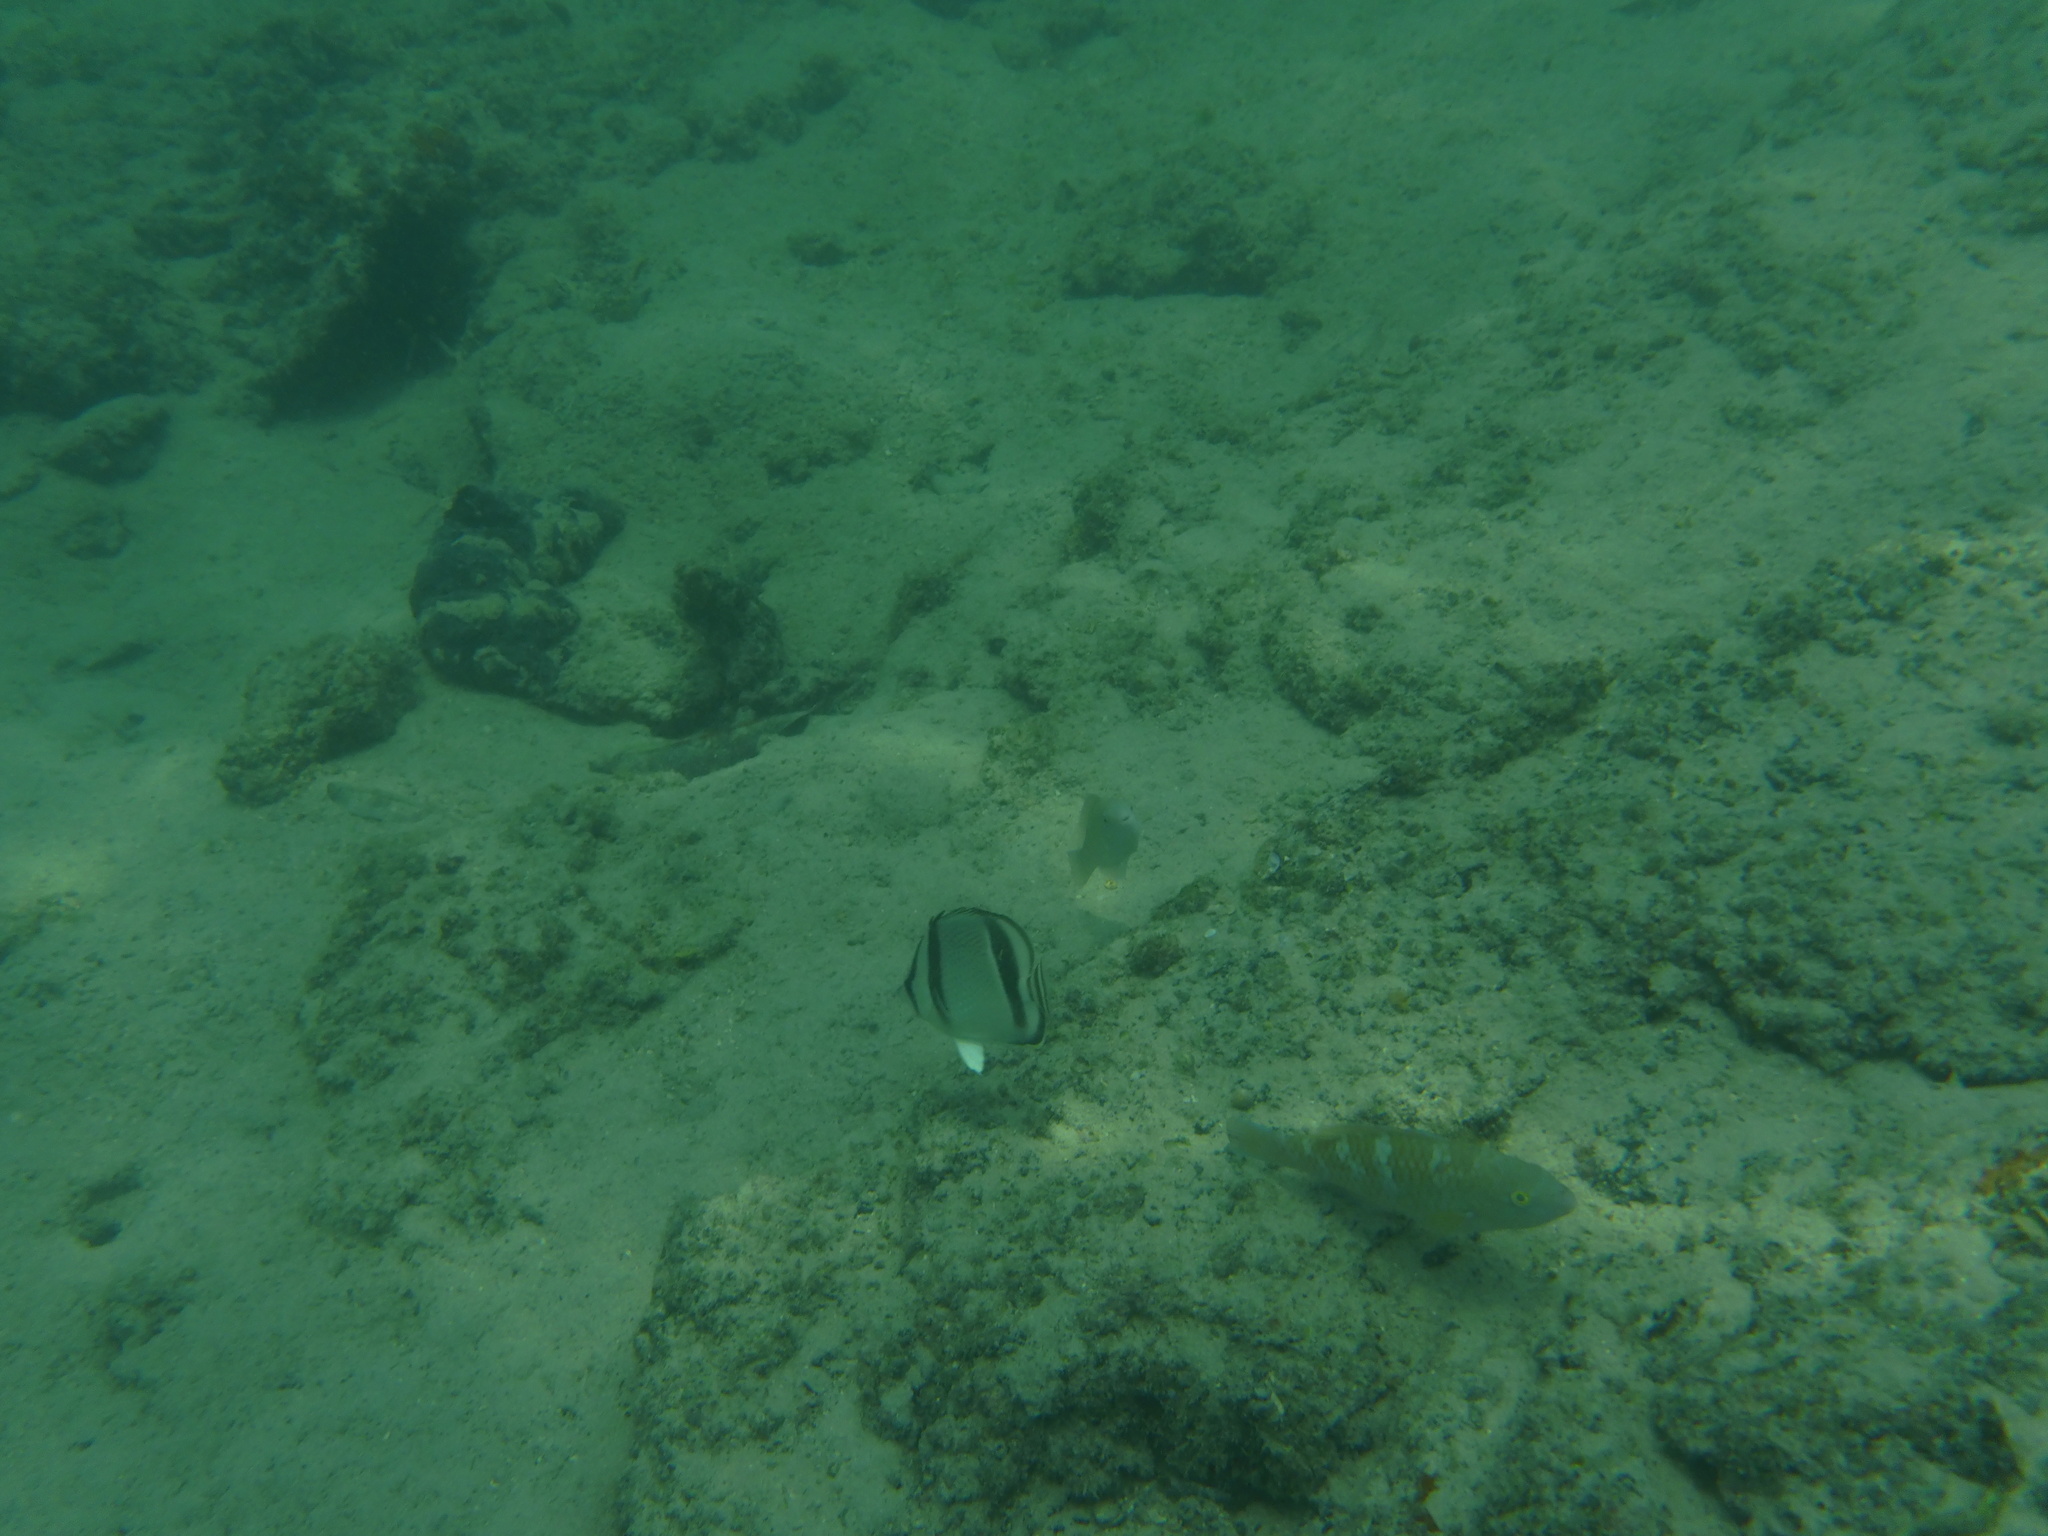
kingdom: Animalia
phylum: Chordata
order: Perciformes
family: Chaetodontidae
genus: Chaetodon
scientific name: Chaetodon humeralis
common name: Threebanded butterflyfish
